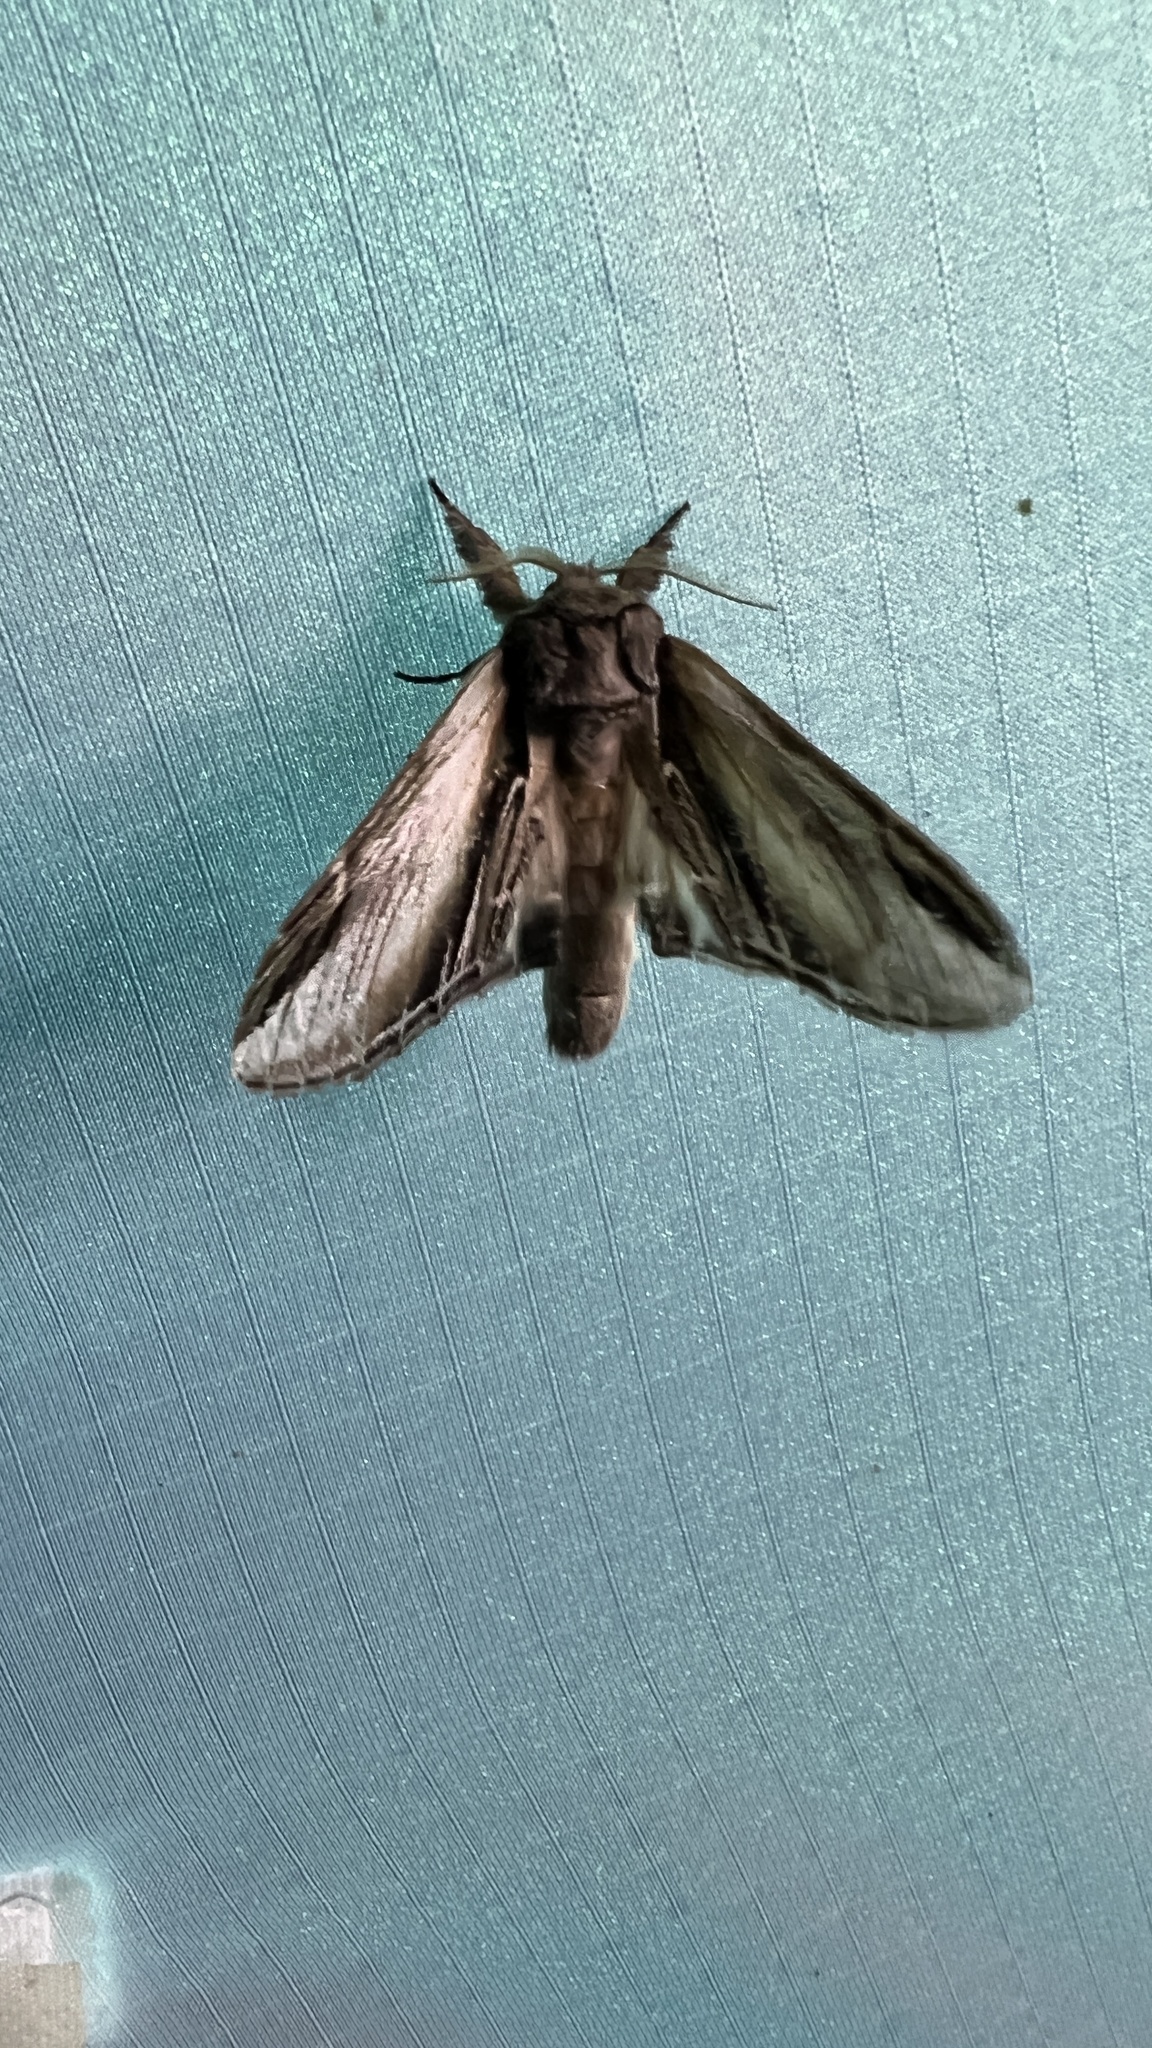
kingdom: Animalia
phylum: Arthropoda
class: Insecta
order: Lepidoptera
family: Notodontidae
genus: Pheosia
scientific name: Pheosia rimosa
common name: Black-rimmed prominent
